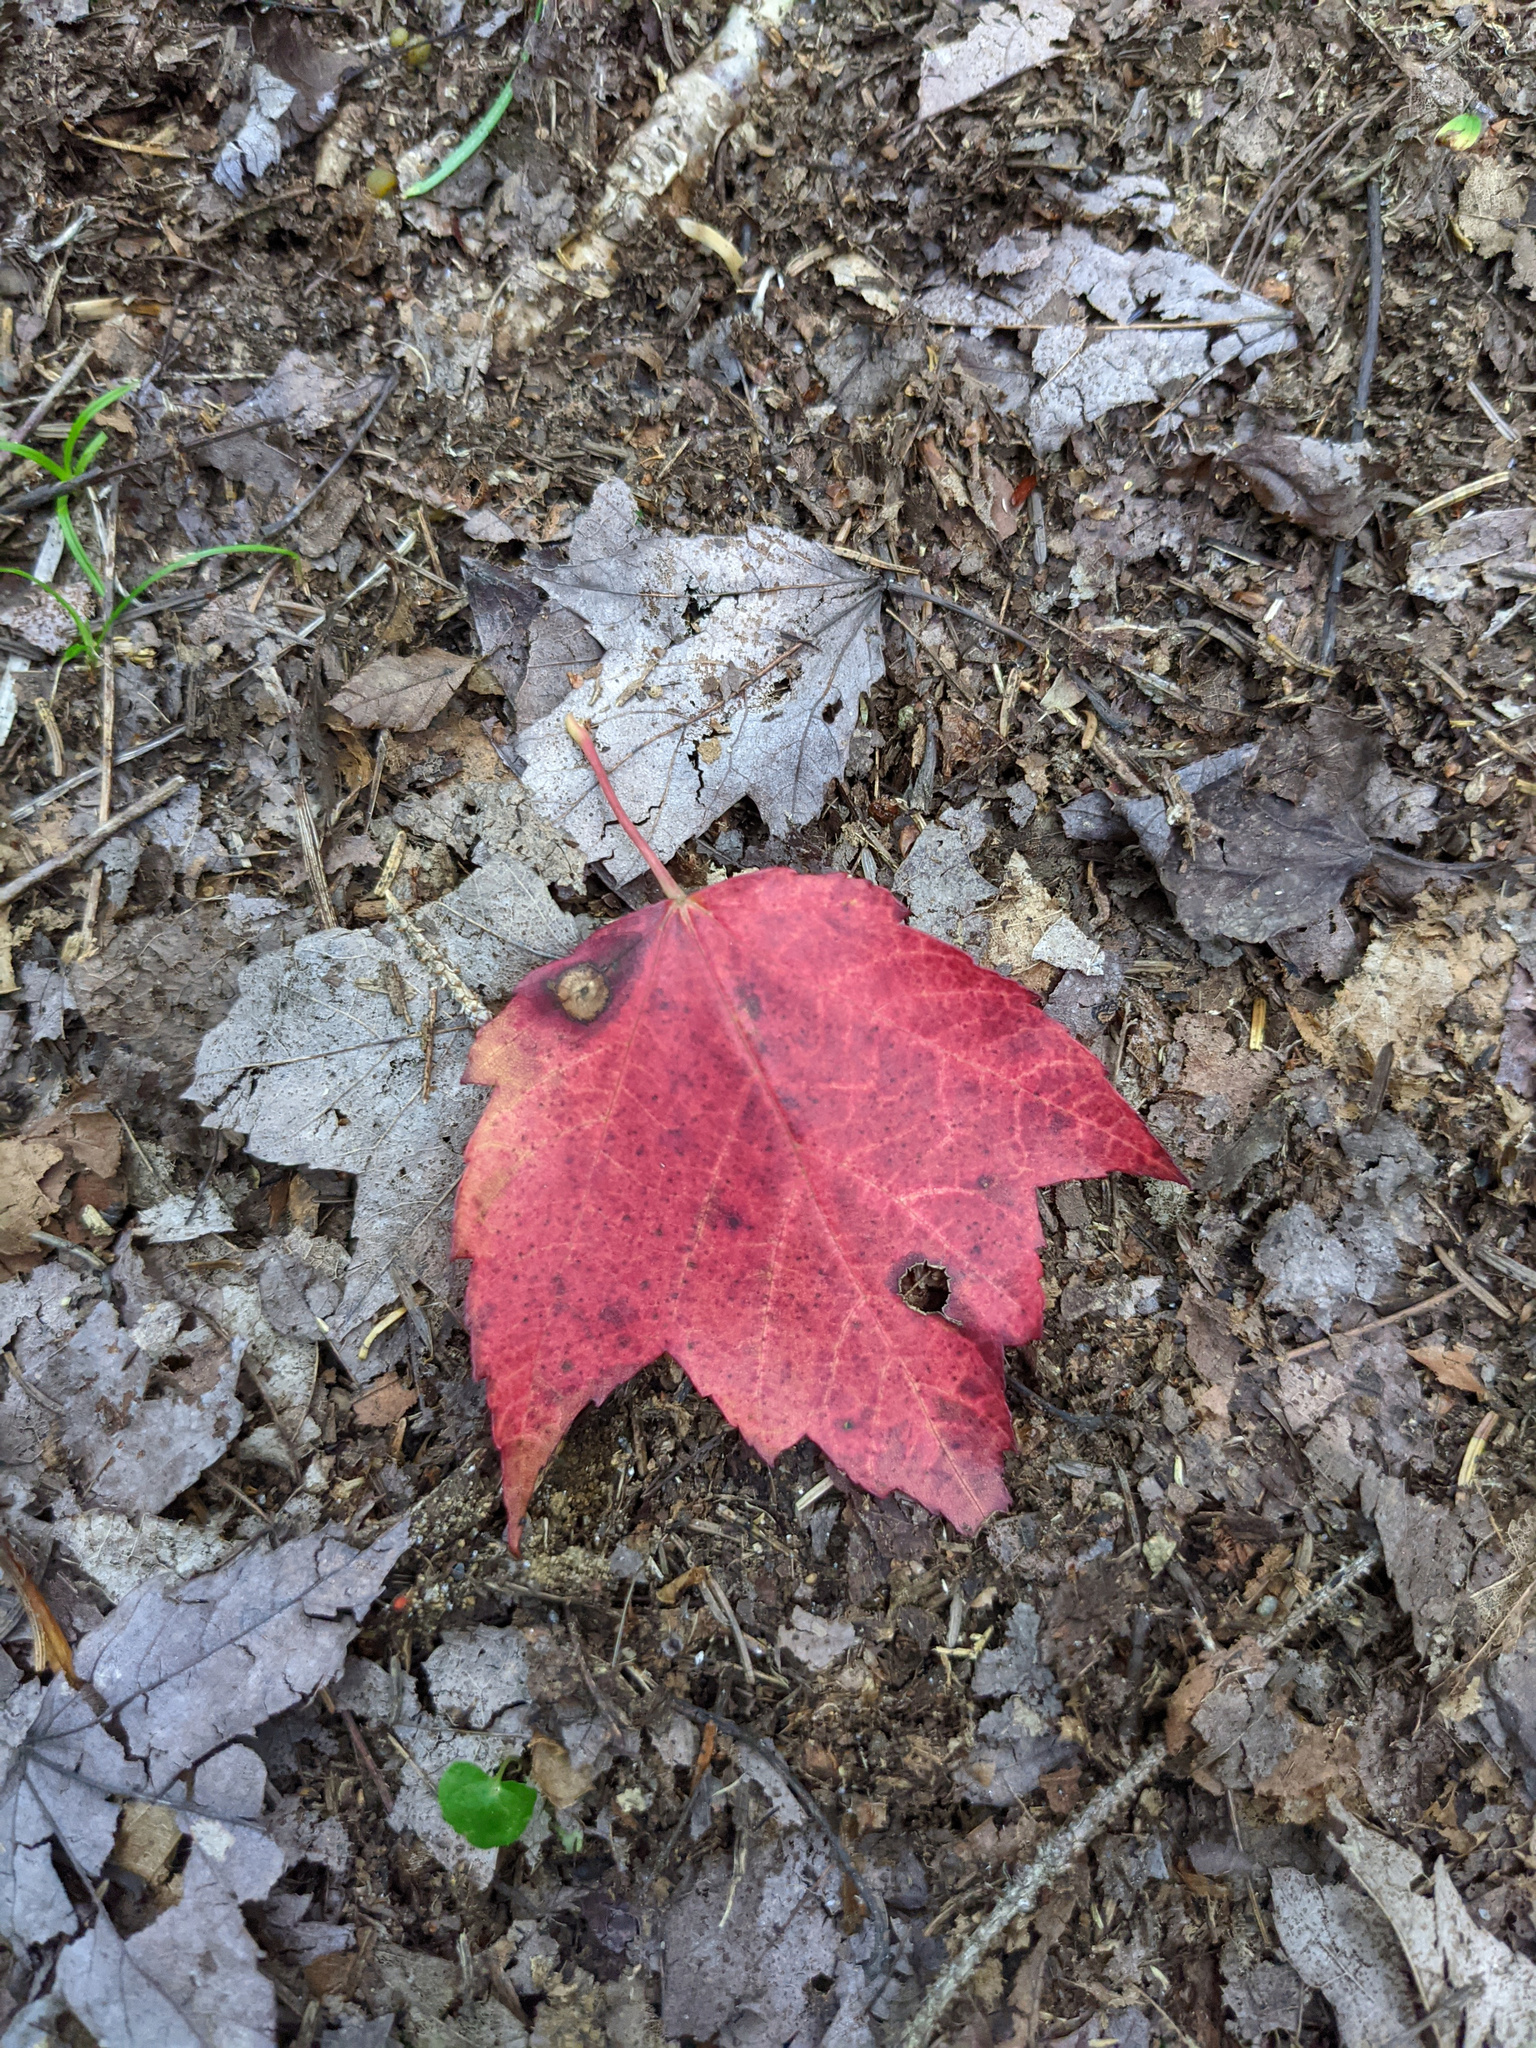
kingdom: Plantae
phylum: Tracheophyta
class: Magnoliopsida
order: Sapindales
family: Sapindaceae
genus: Acer
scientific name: Acer rubrum
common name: Red maple
